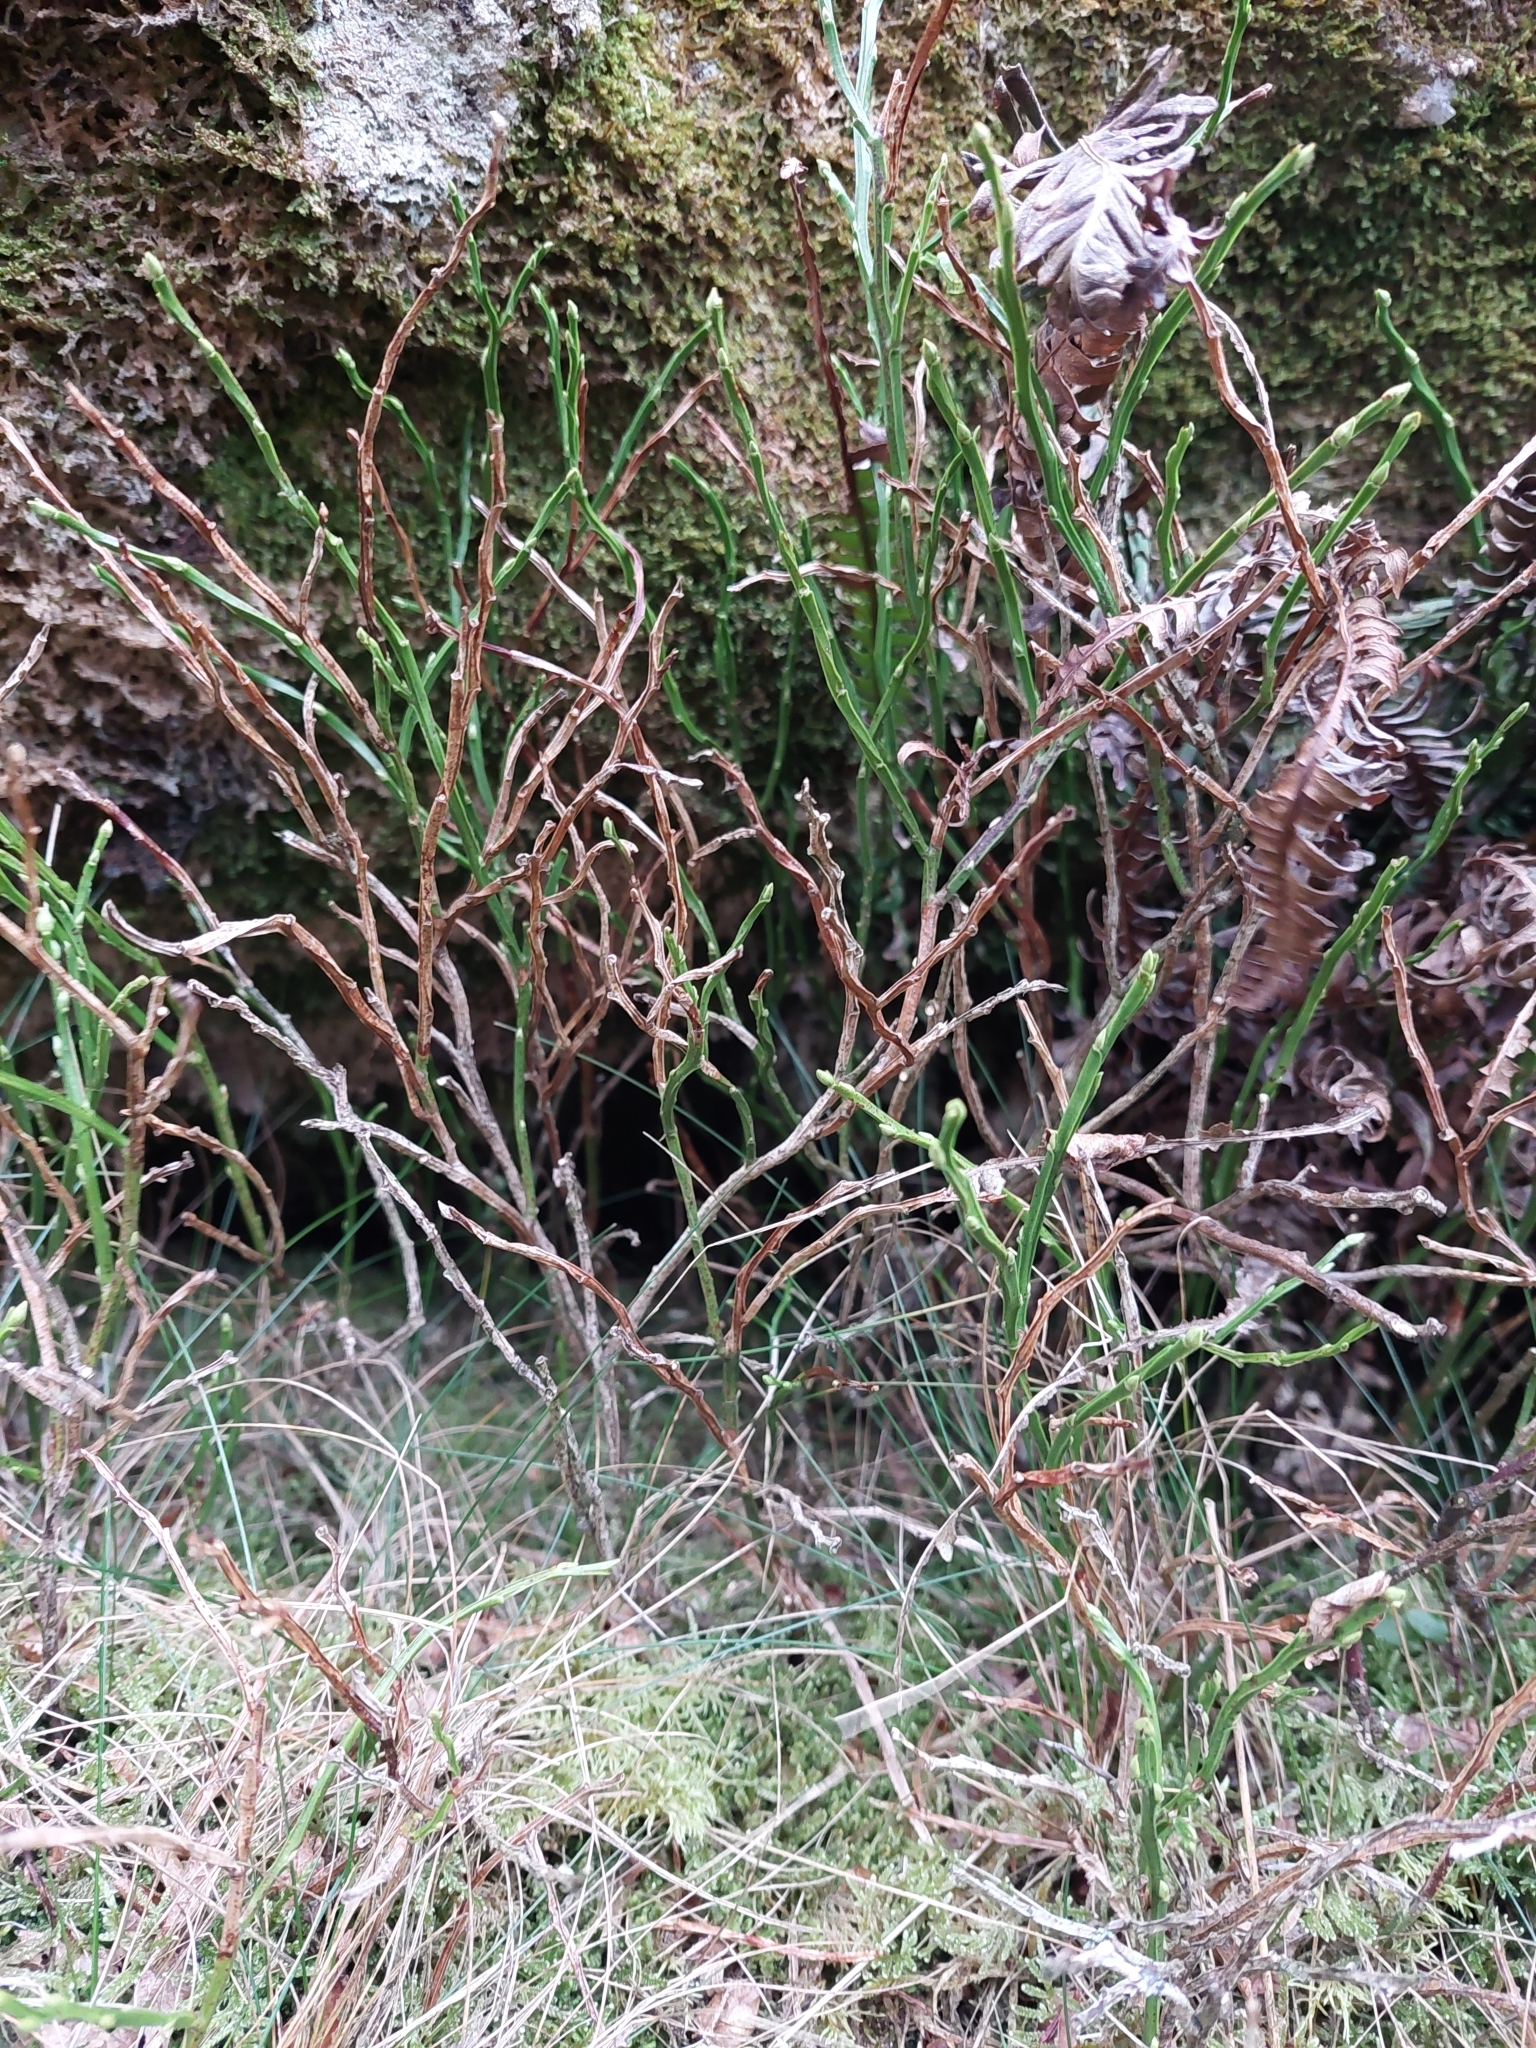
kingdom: Plantae
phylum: Tracheophyta
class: Magnoliopsida
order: Ericales
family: Ericaceae
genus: Vaccinium
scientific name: Vaccinium myrtillus
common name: Bilberry
